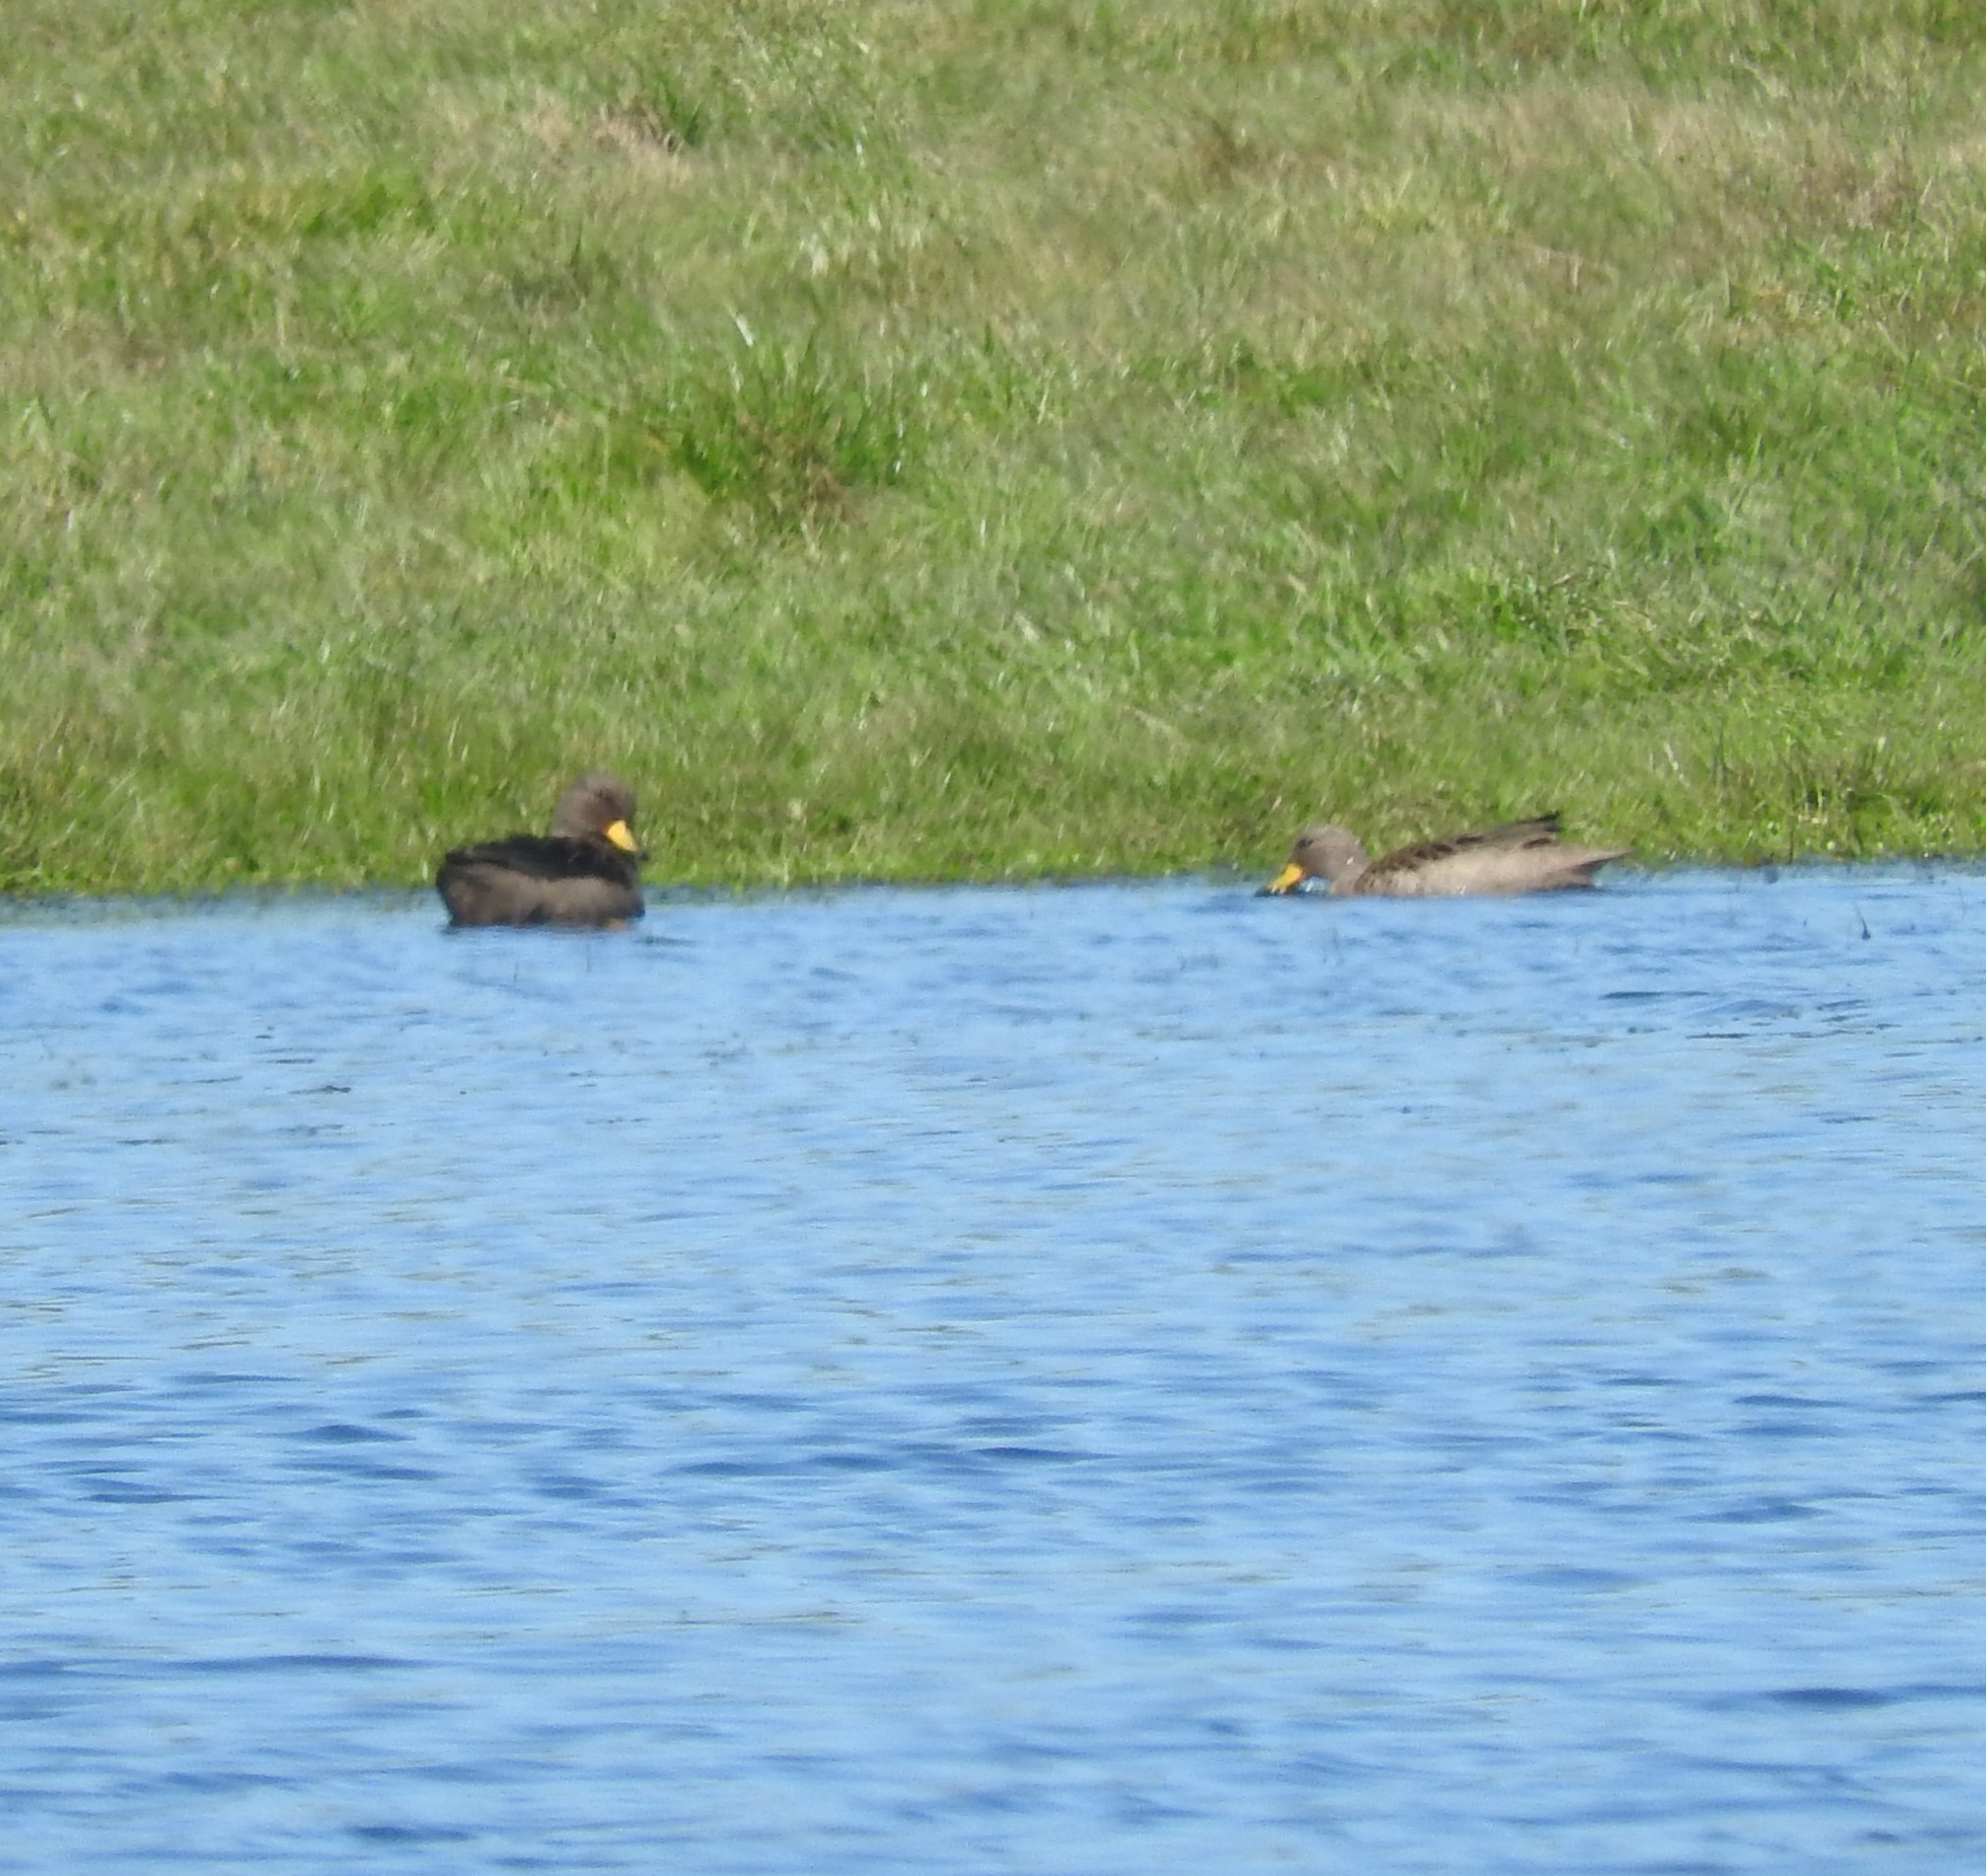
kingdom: Animalia
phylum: Chordata
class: Aves
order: Anseriformes
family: Anatidae
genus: Anas
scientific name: Anas flavirostris
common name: Yellow-billed teal
